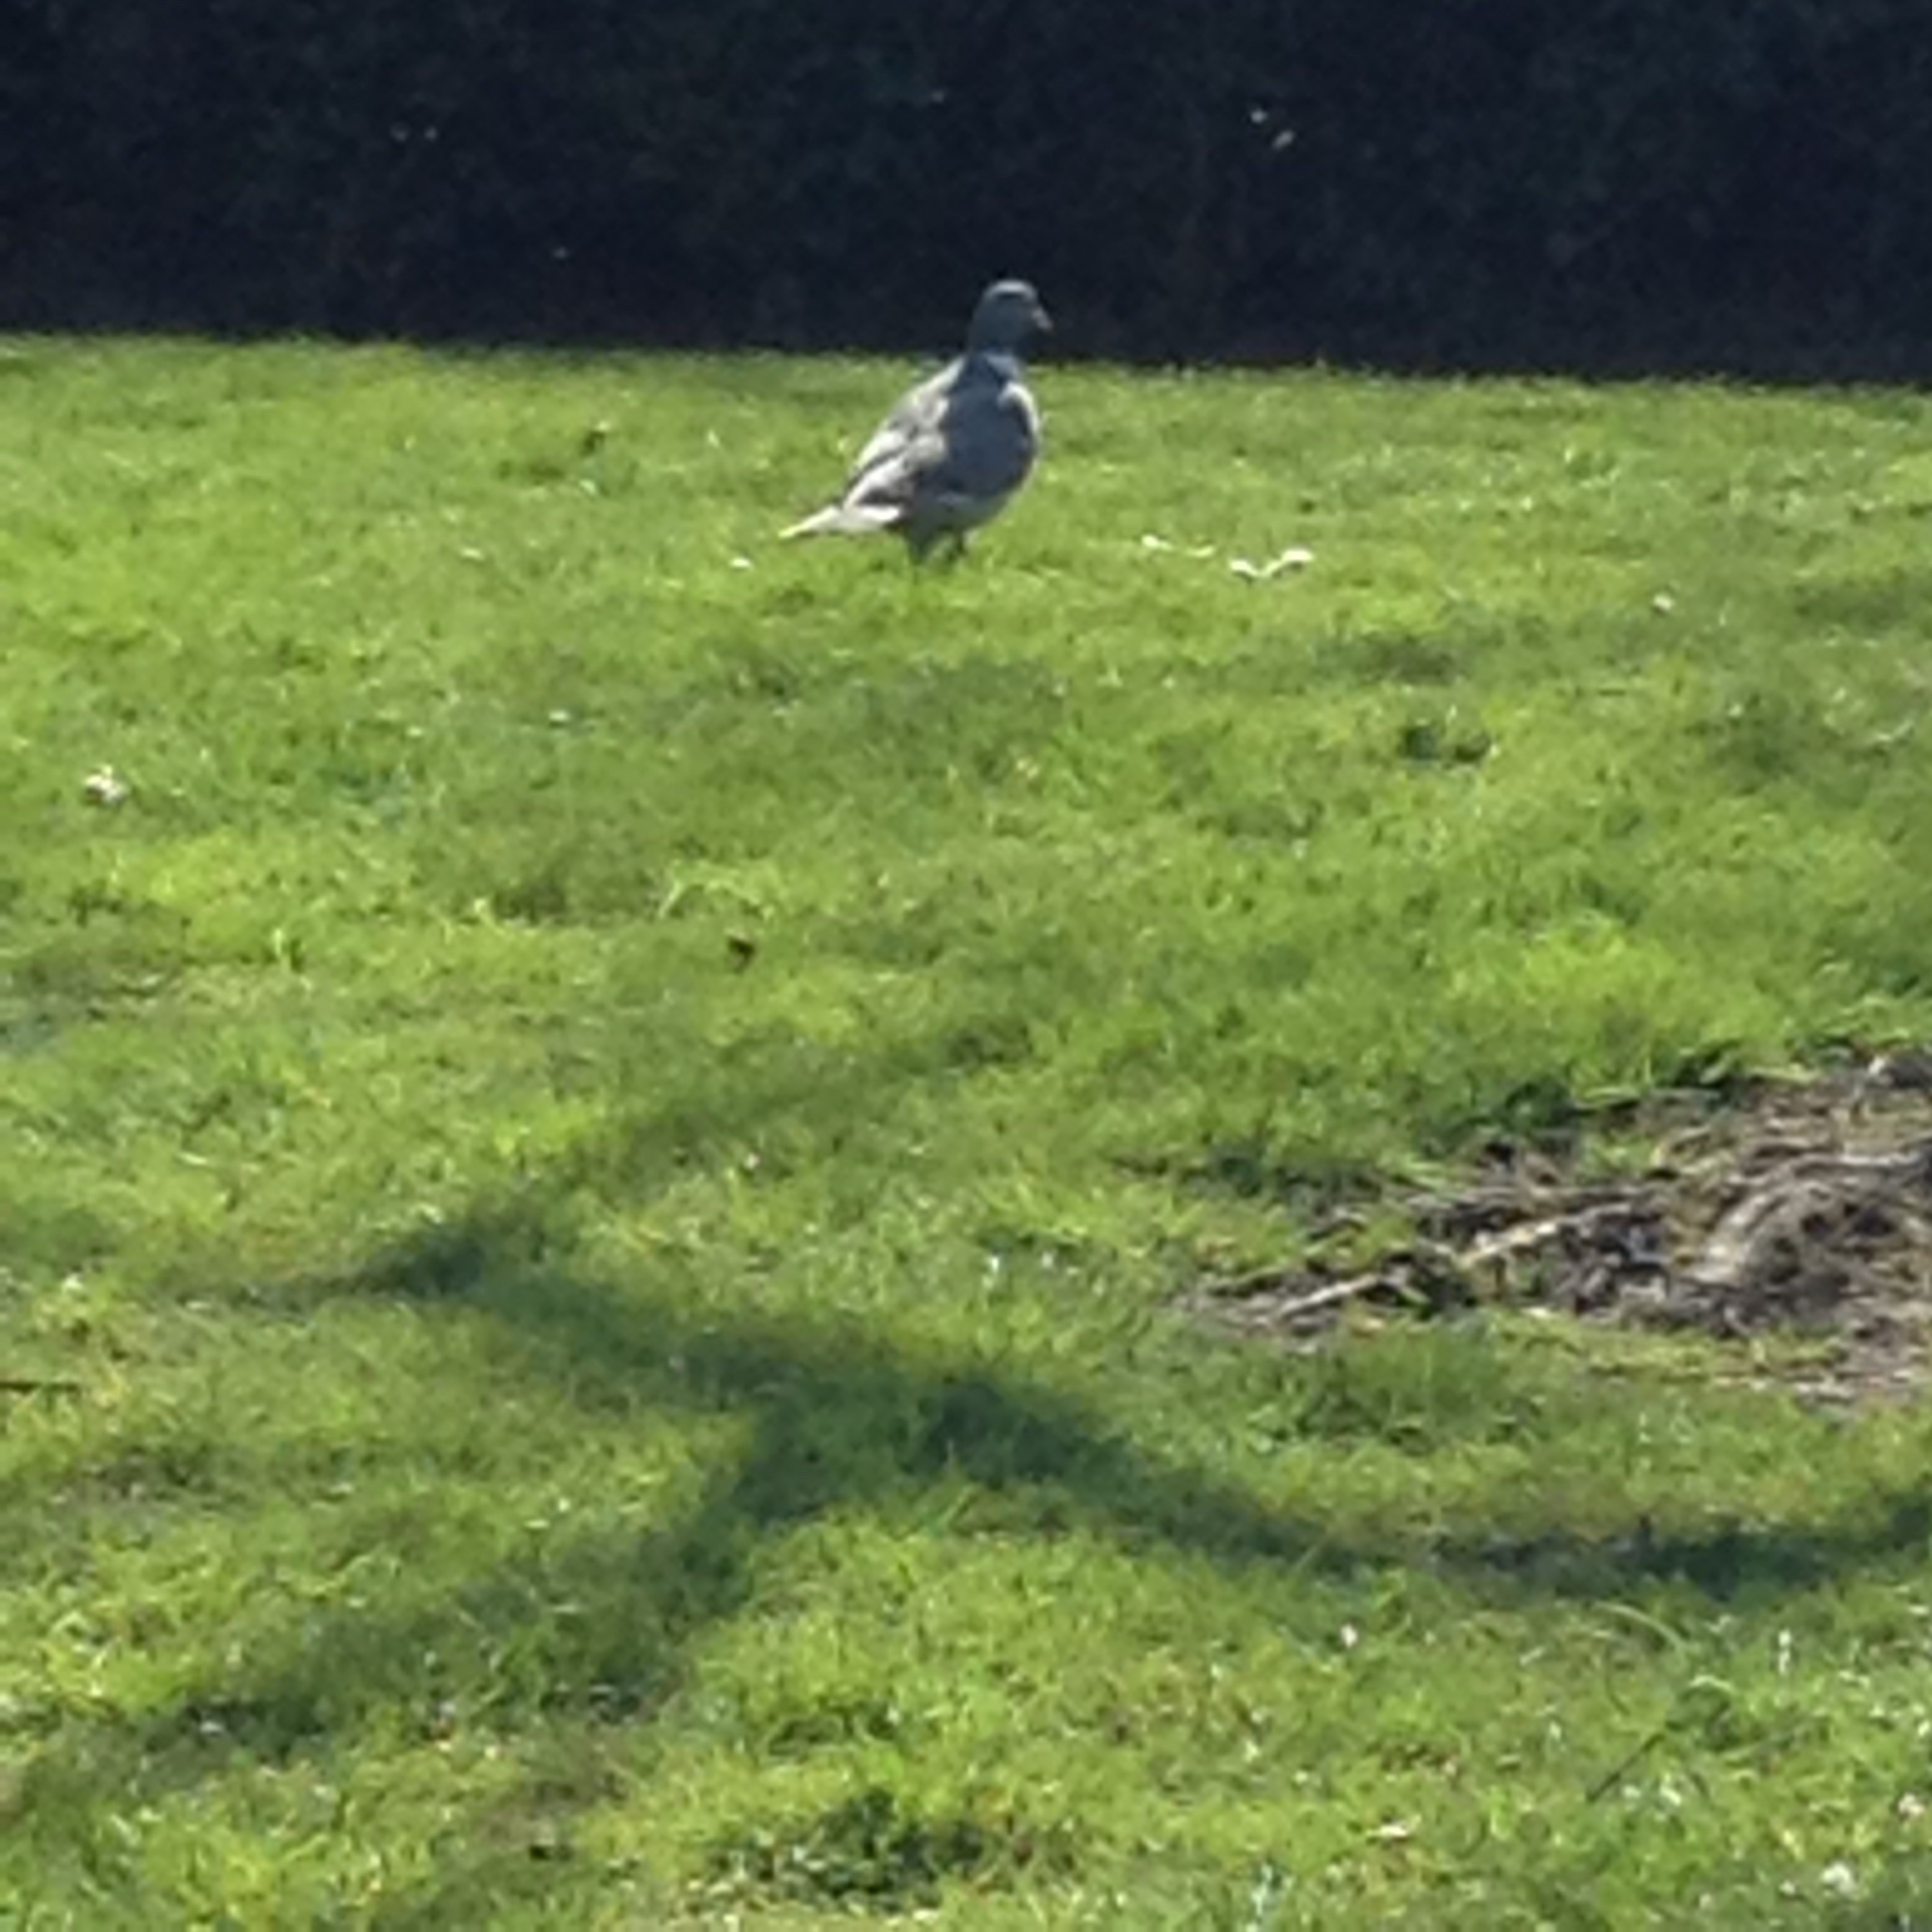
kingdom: Animalia
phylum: Chordata
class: Aves
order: Columbiformes
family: Columbidae
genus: Columba
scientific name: Columba palumbus
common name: Common wood pigeon
